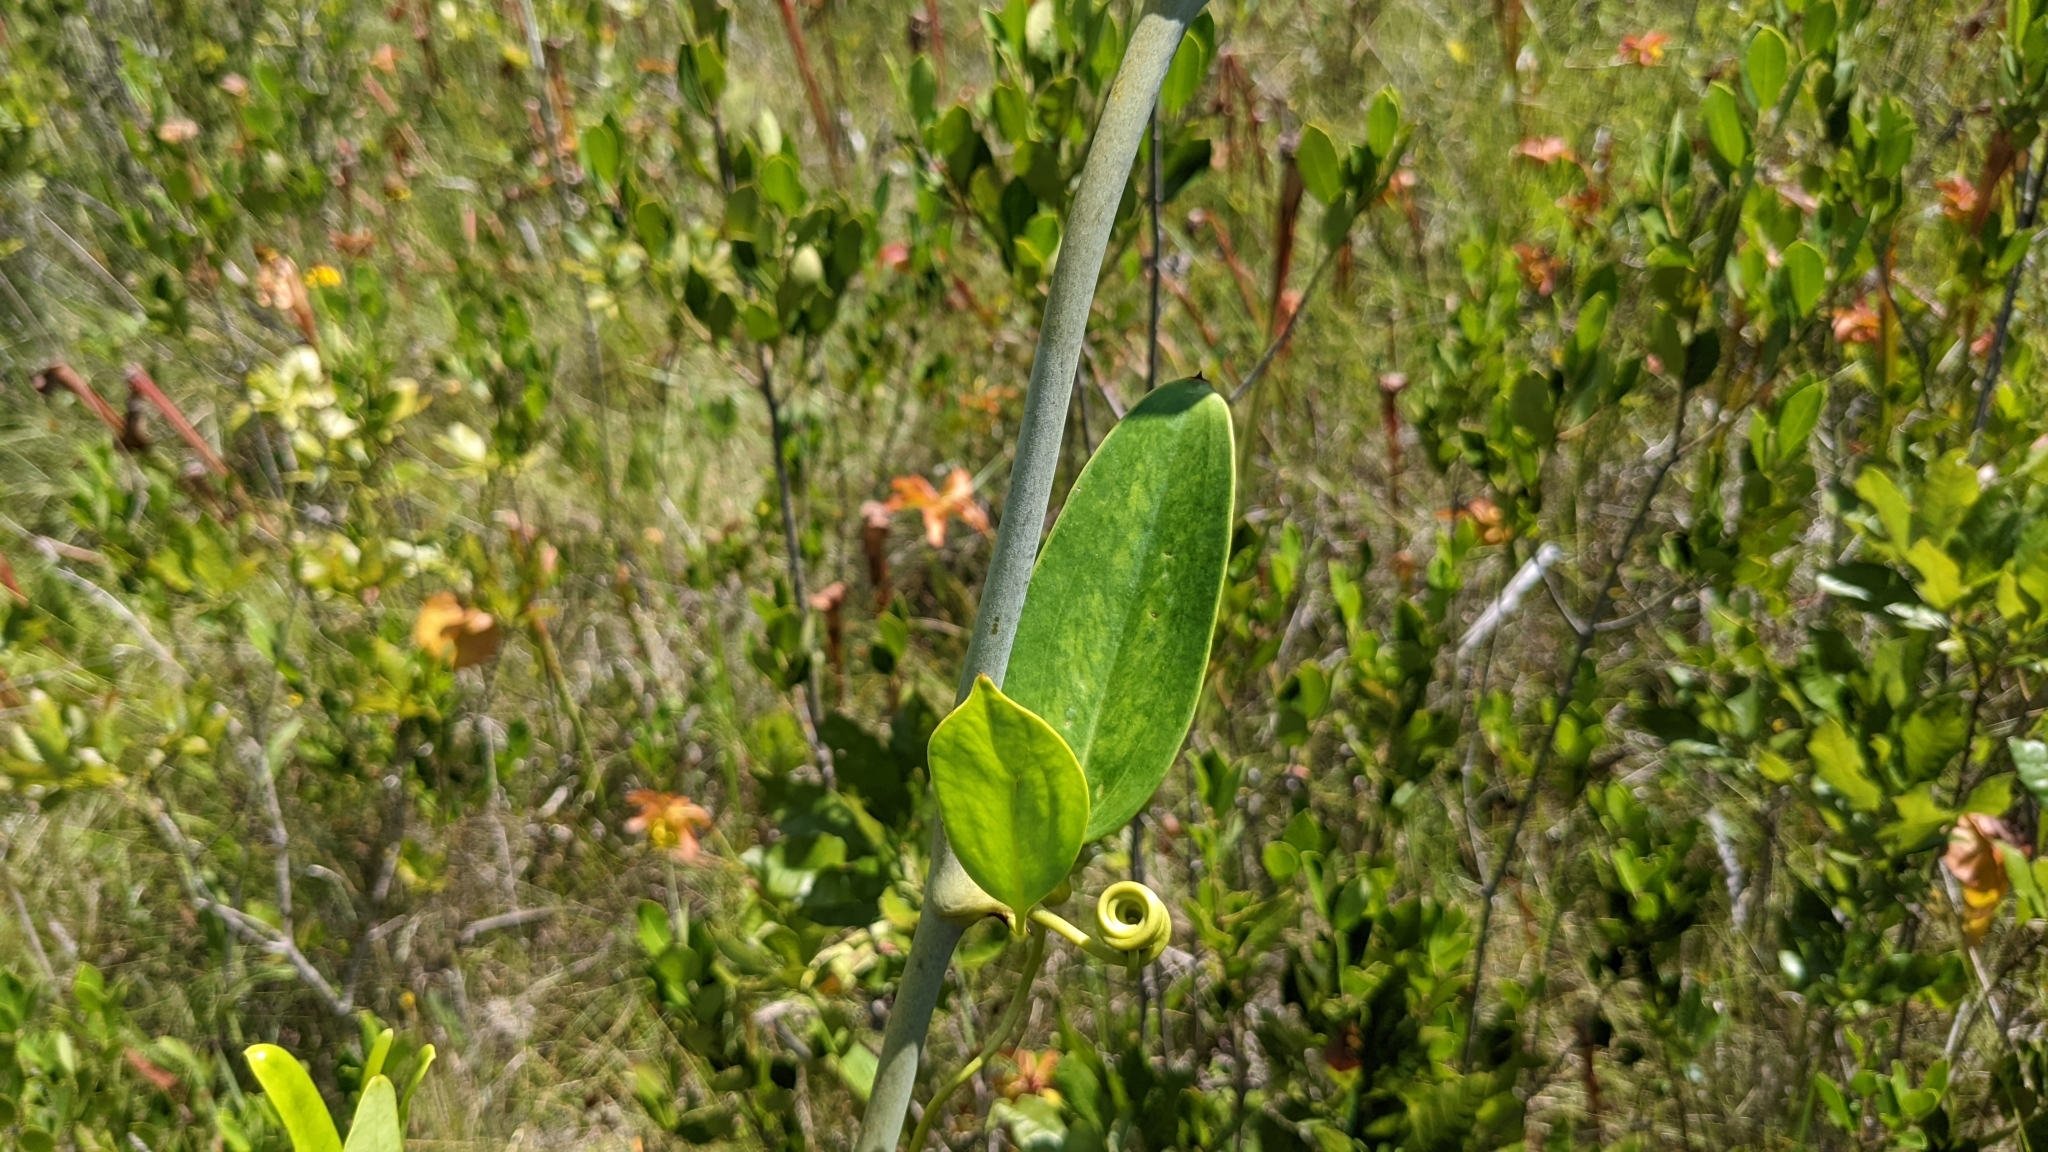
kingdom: Plantae
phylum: Tracheophyta
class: Liliopsida
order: Liliales
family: Smilacaceae
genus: Smilax
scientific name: Smilax laurifolia
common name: Bamboovine
